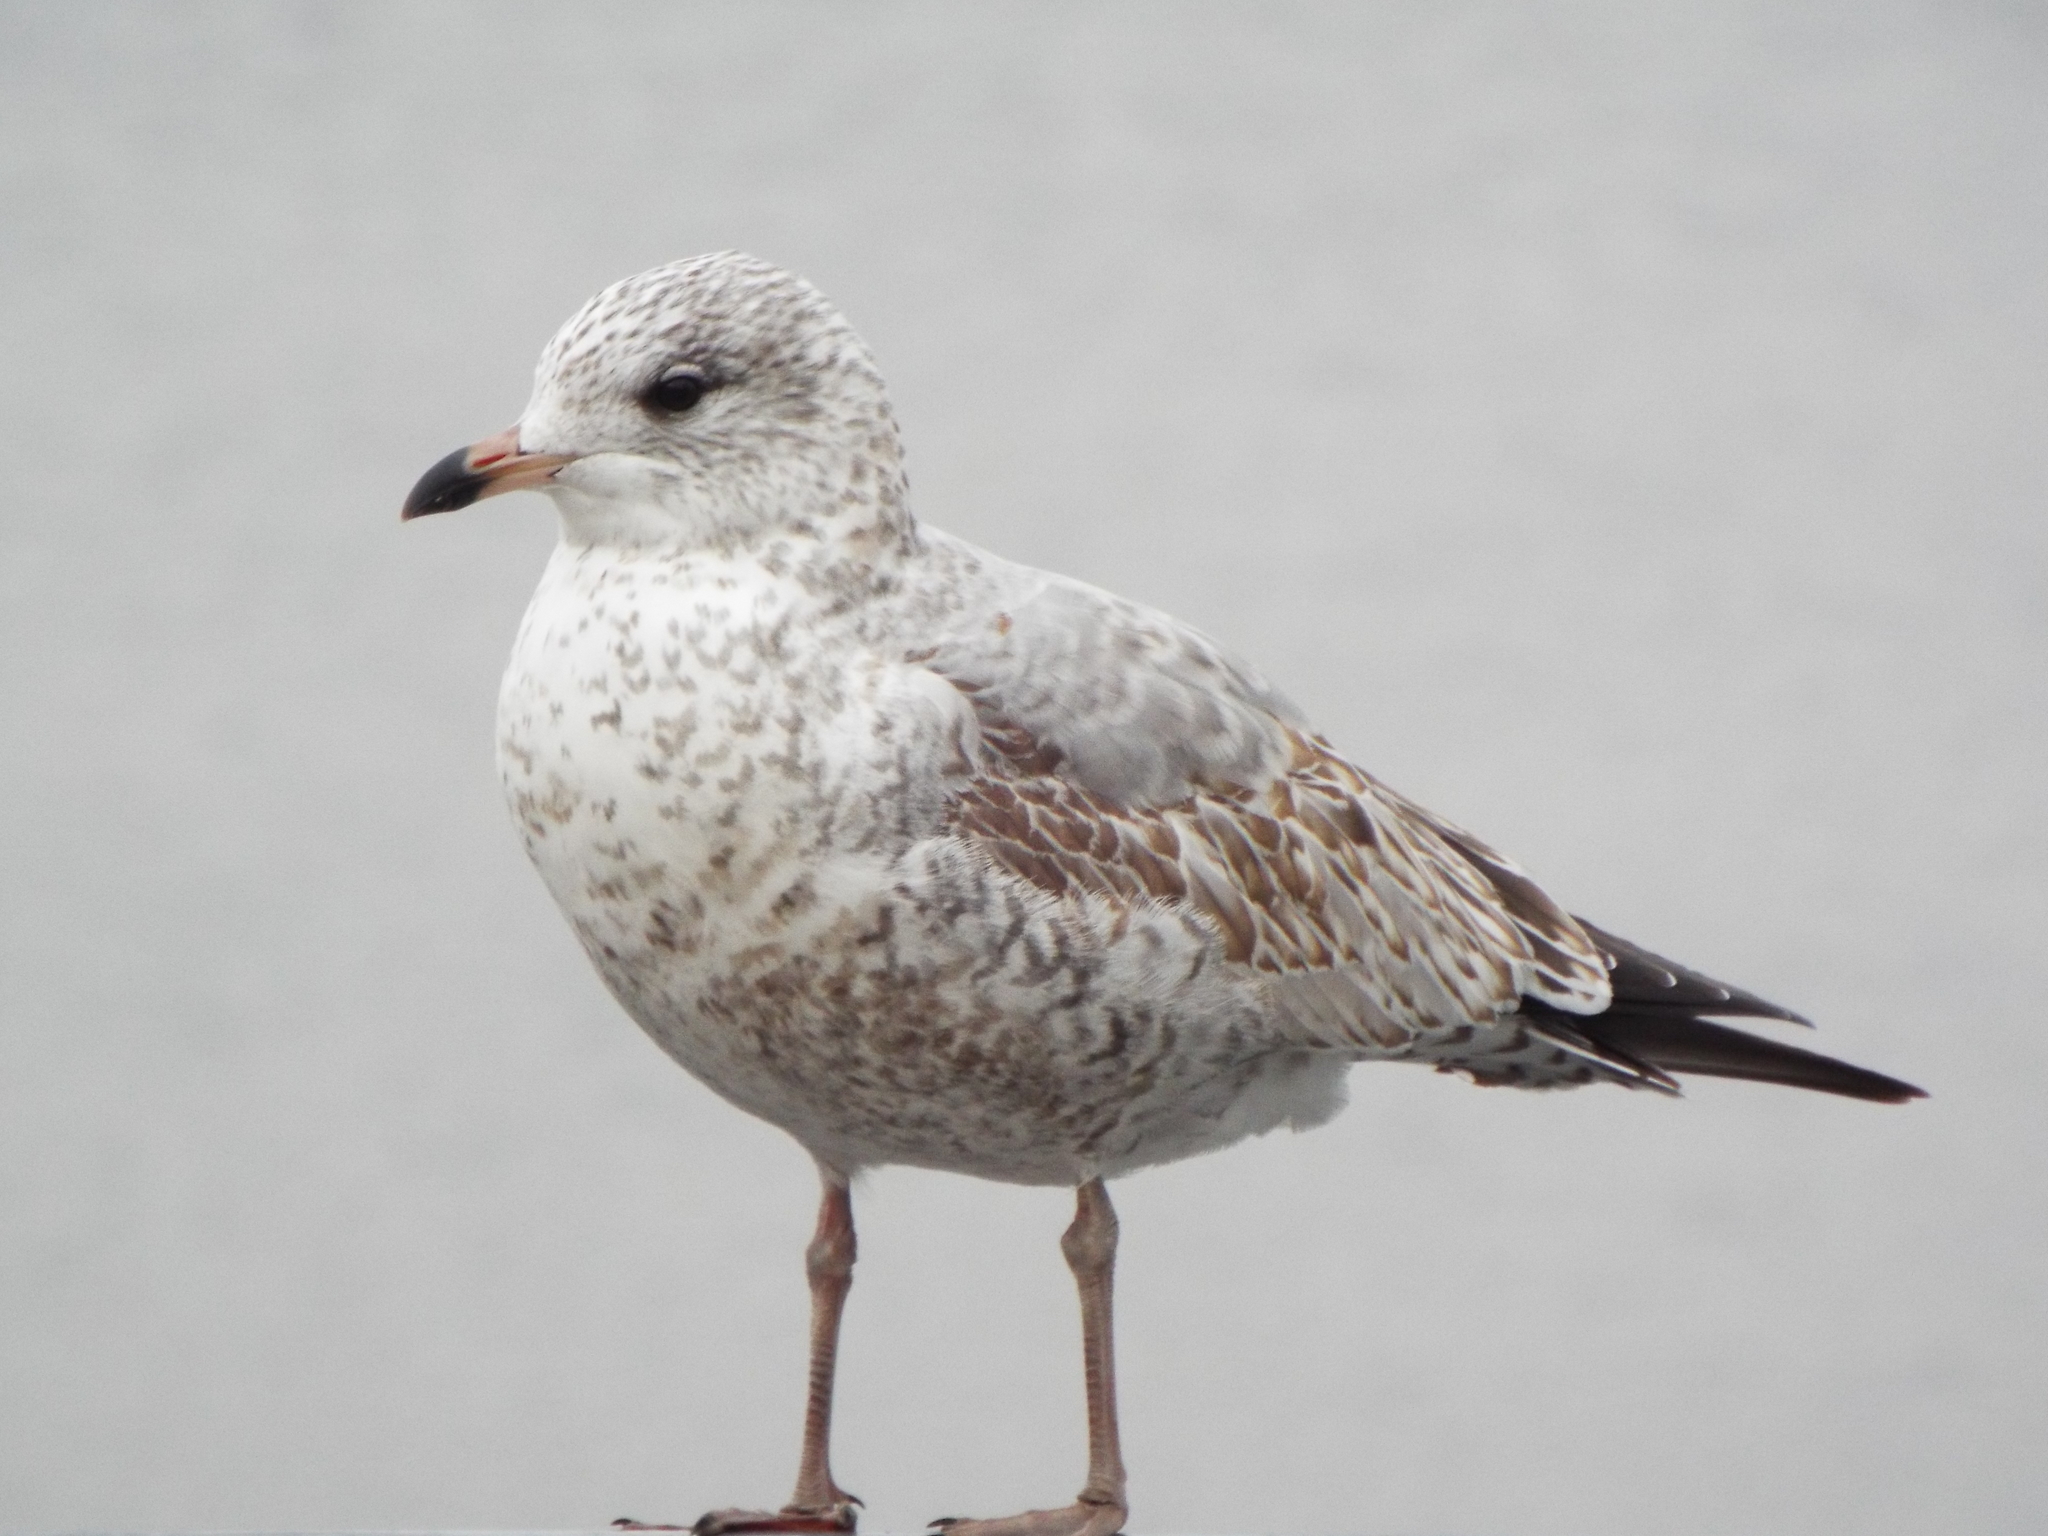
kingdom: Animalia
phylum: Chordata
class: Aves
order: Charadriiformes
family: Laridae
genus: Larus
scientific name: Larus delawarensis
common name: Ring-billed gull
